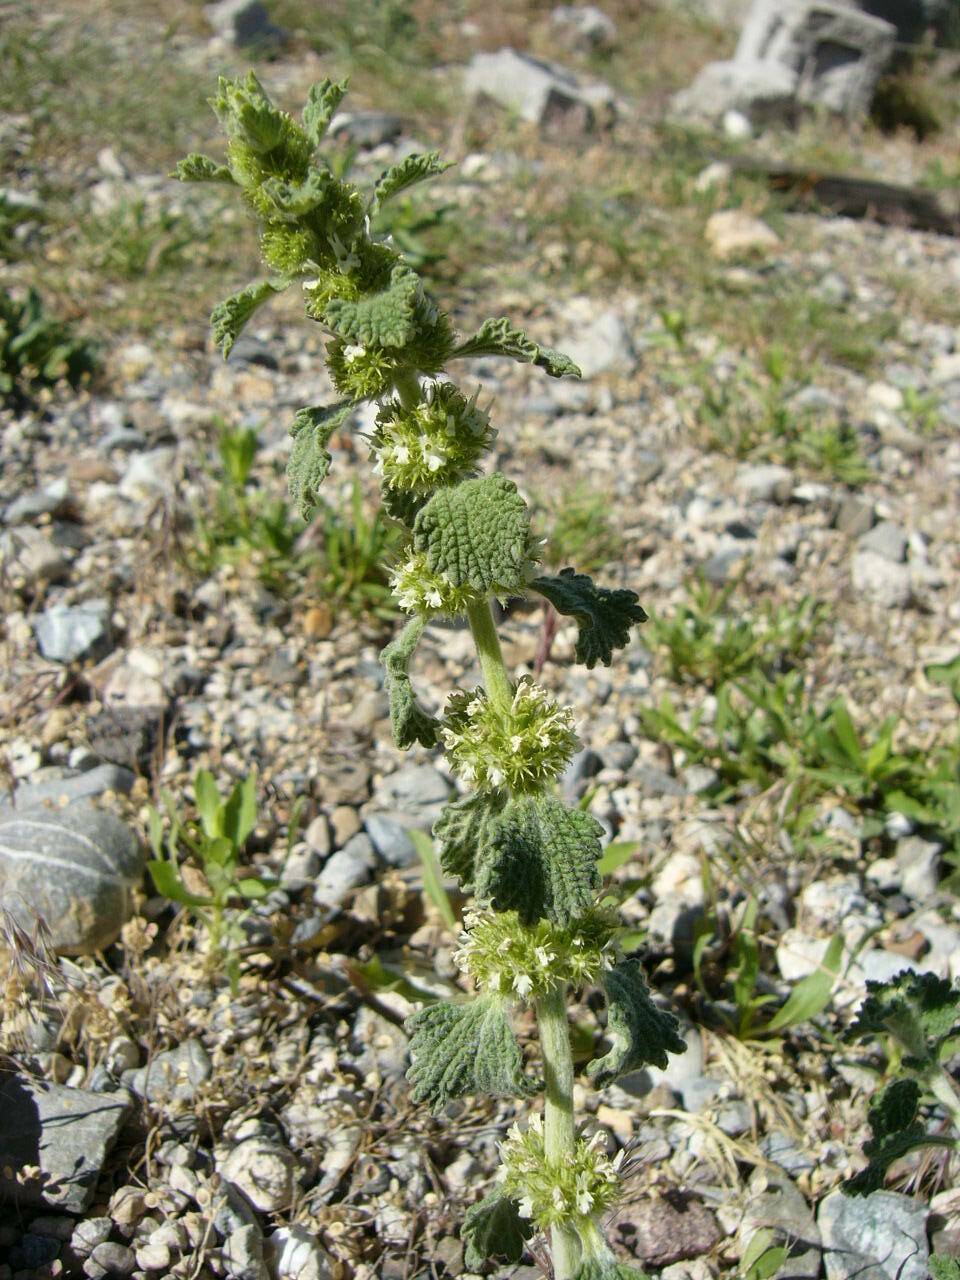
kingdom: Plantae
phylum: Tracheophyta
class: Magnoliopsida
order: Lamiales
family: Lamiaceae
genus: Marrubium
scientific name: Marrubium vulgare
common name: Horehound
